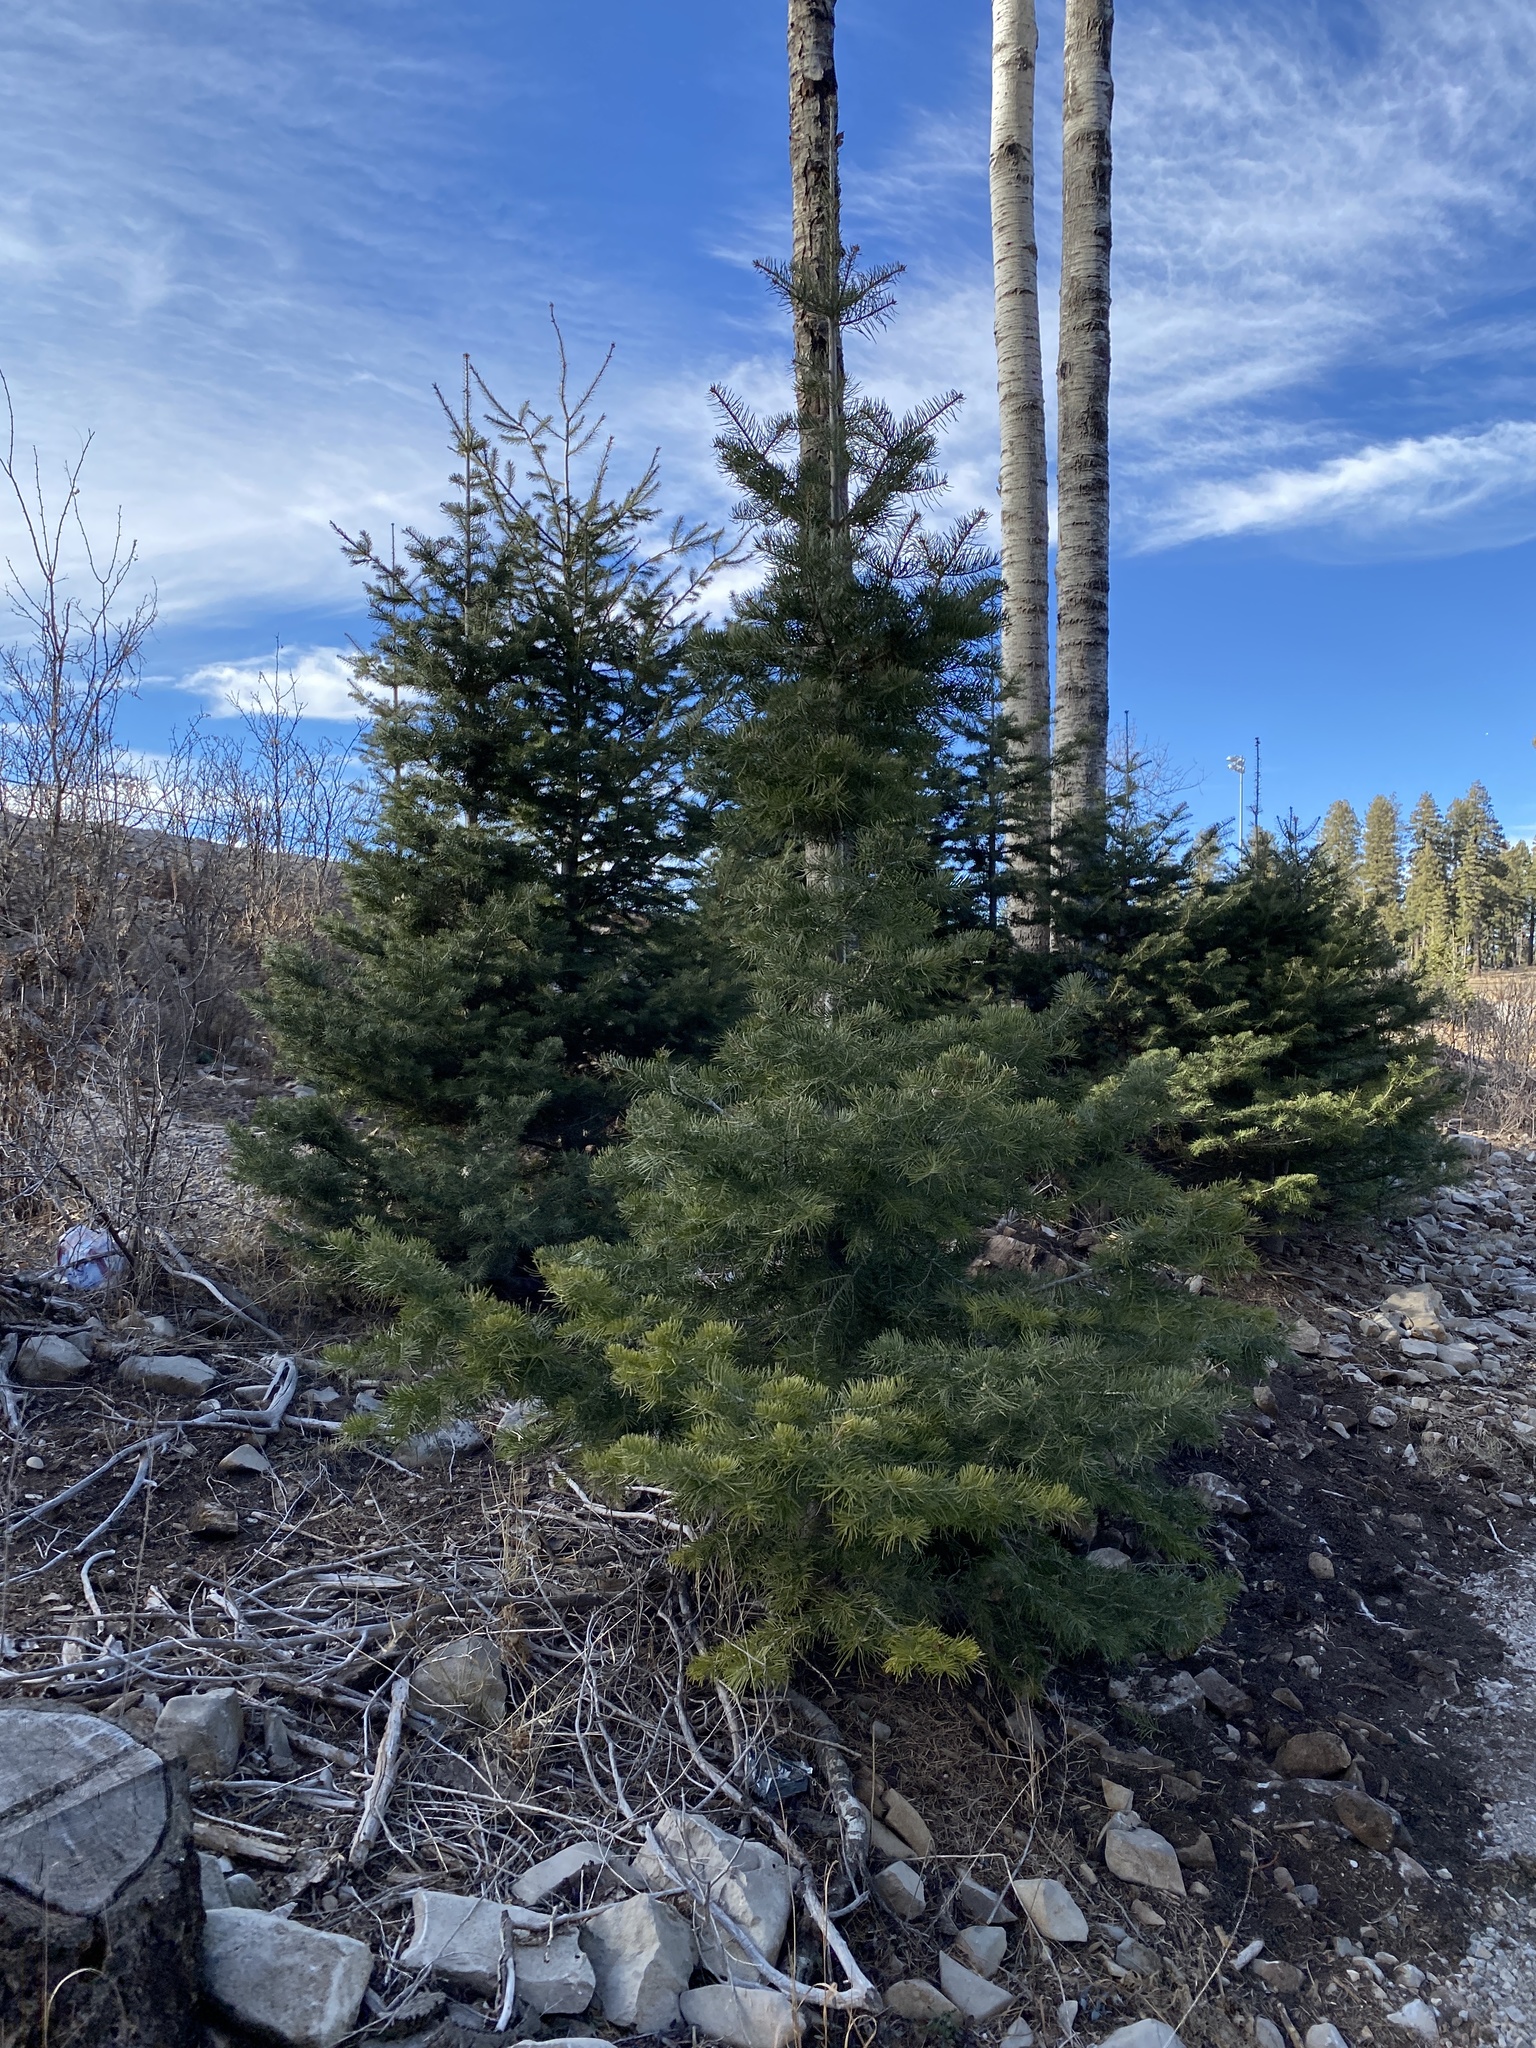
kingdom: Plantae
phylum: Tracheophyta
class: Pinopsida
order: Pinales
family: Pinaceae
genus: Abies
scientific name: Abies concolor
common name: Colorado fir
